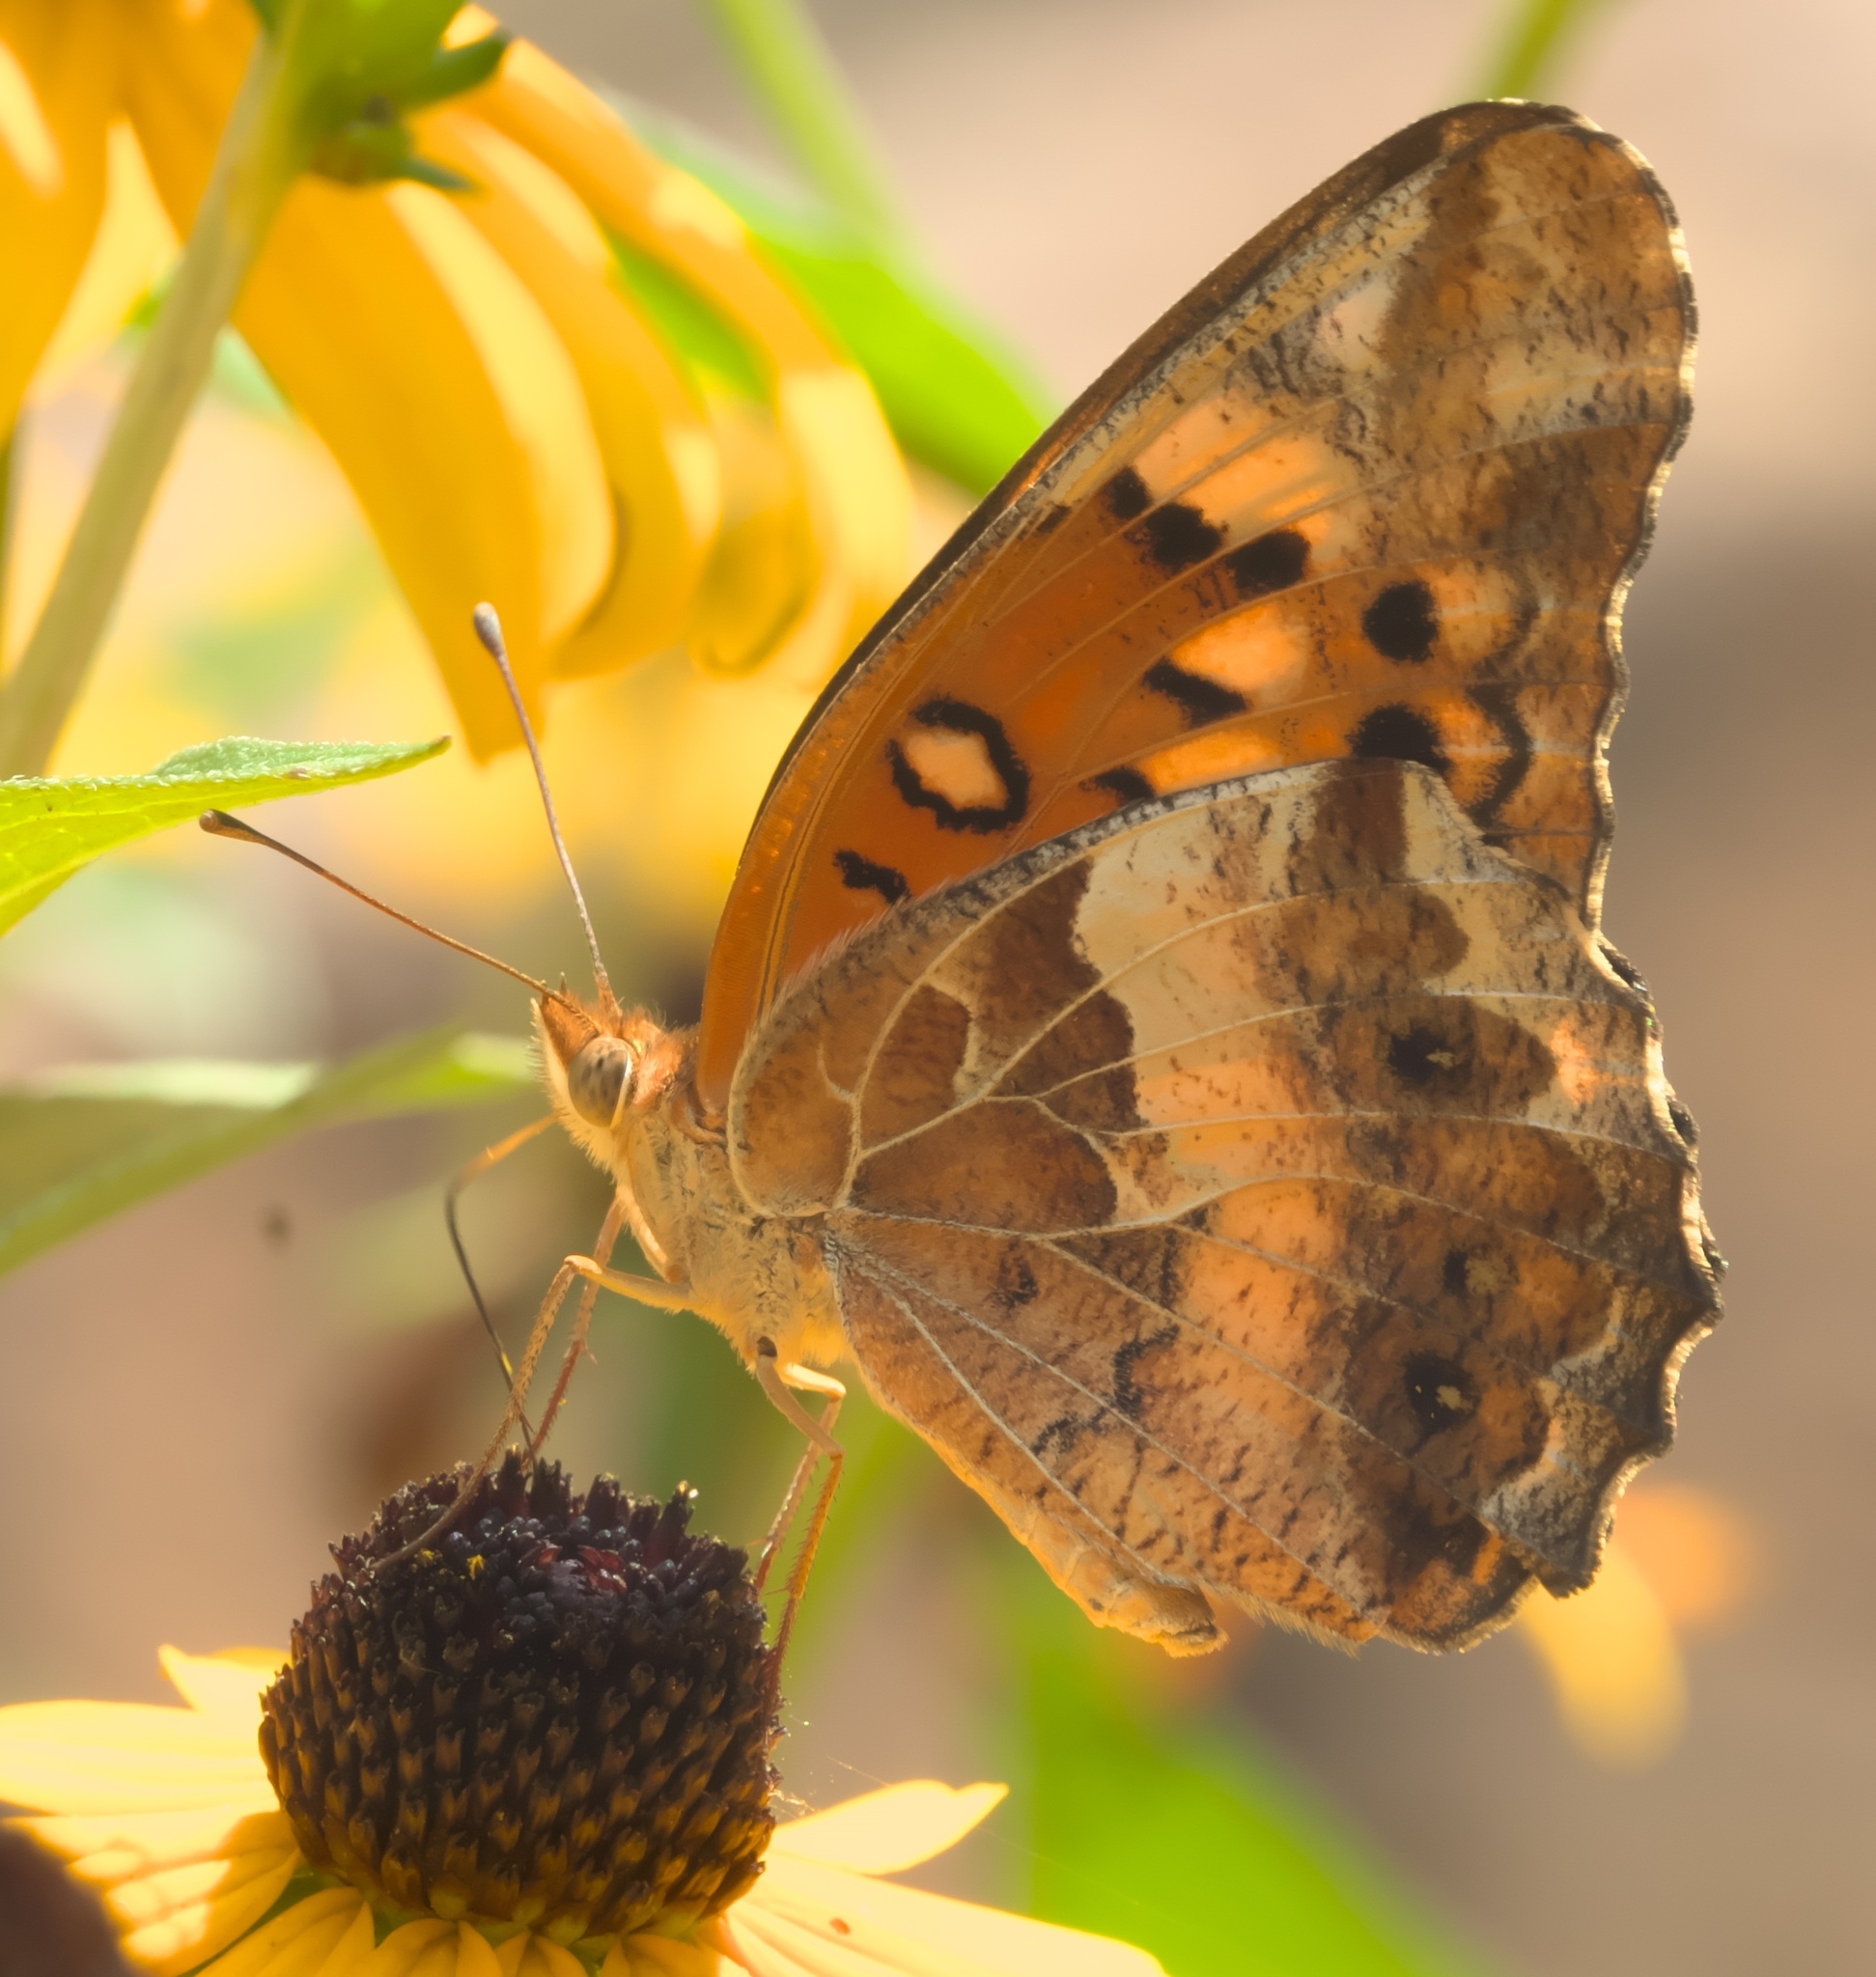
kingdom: Animalia
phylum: Arthropoda
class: Insecta
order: Lepidoptera
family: Nymphalidae
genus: Euptoieta
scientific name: Euptoieta claudia
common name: Variegated fritillary
